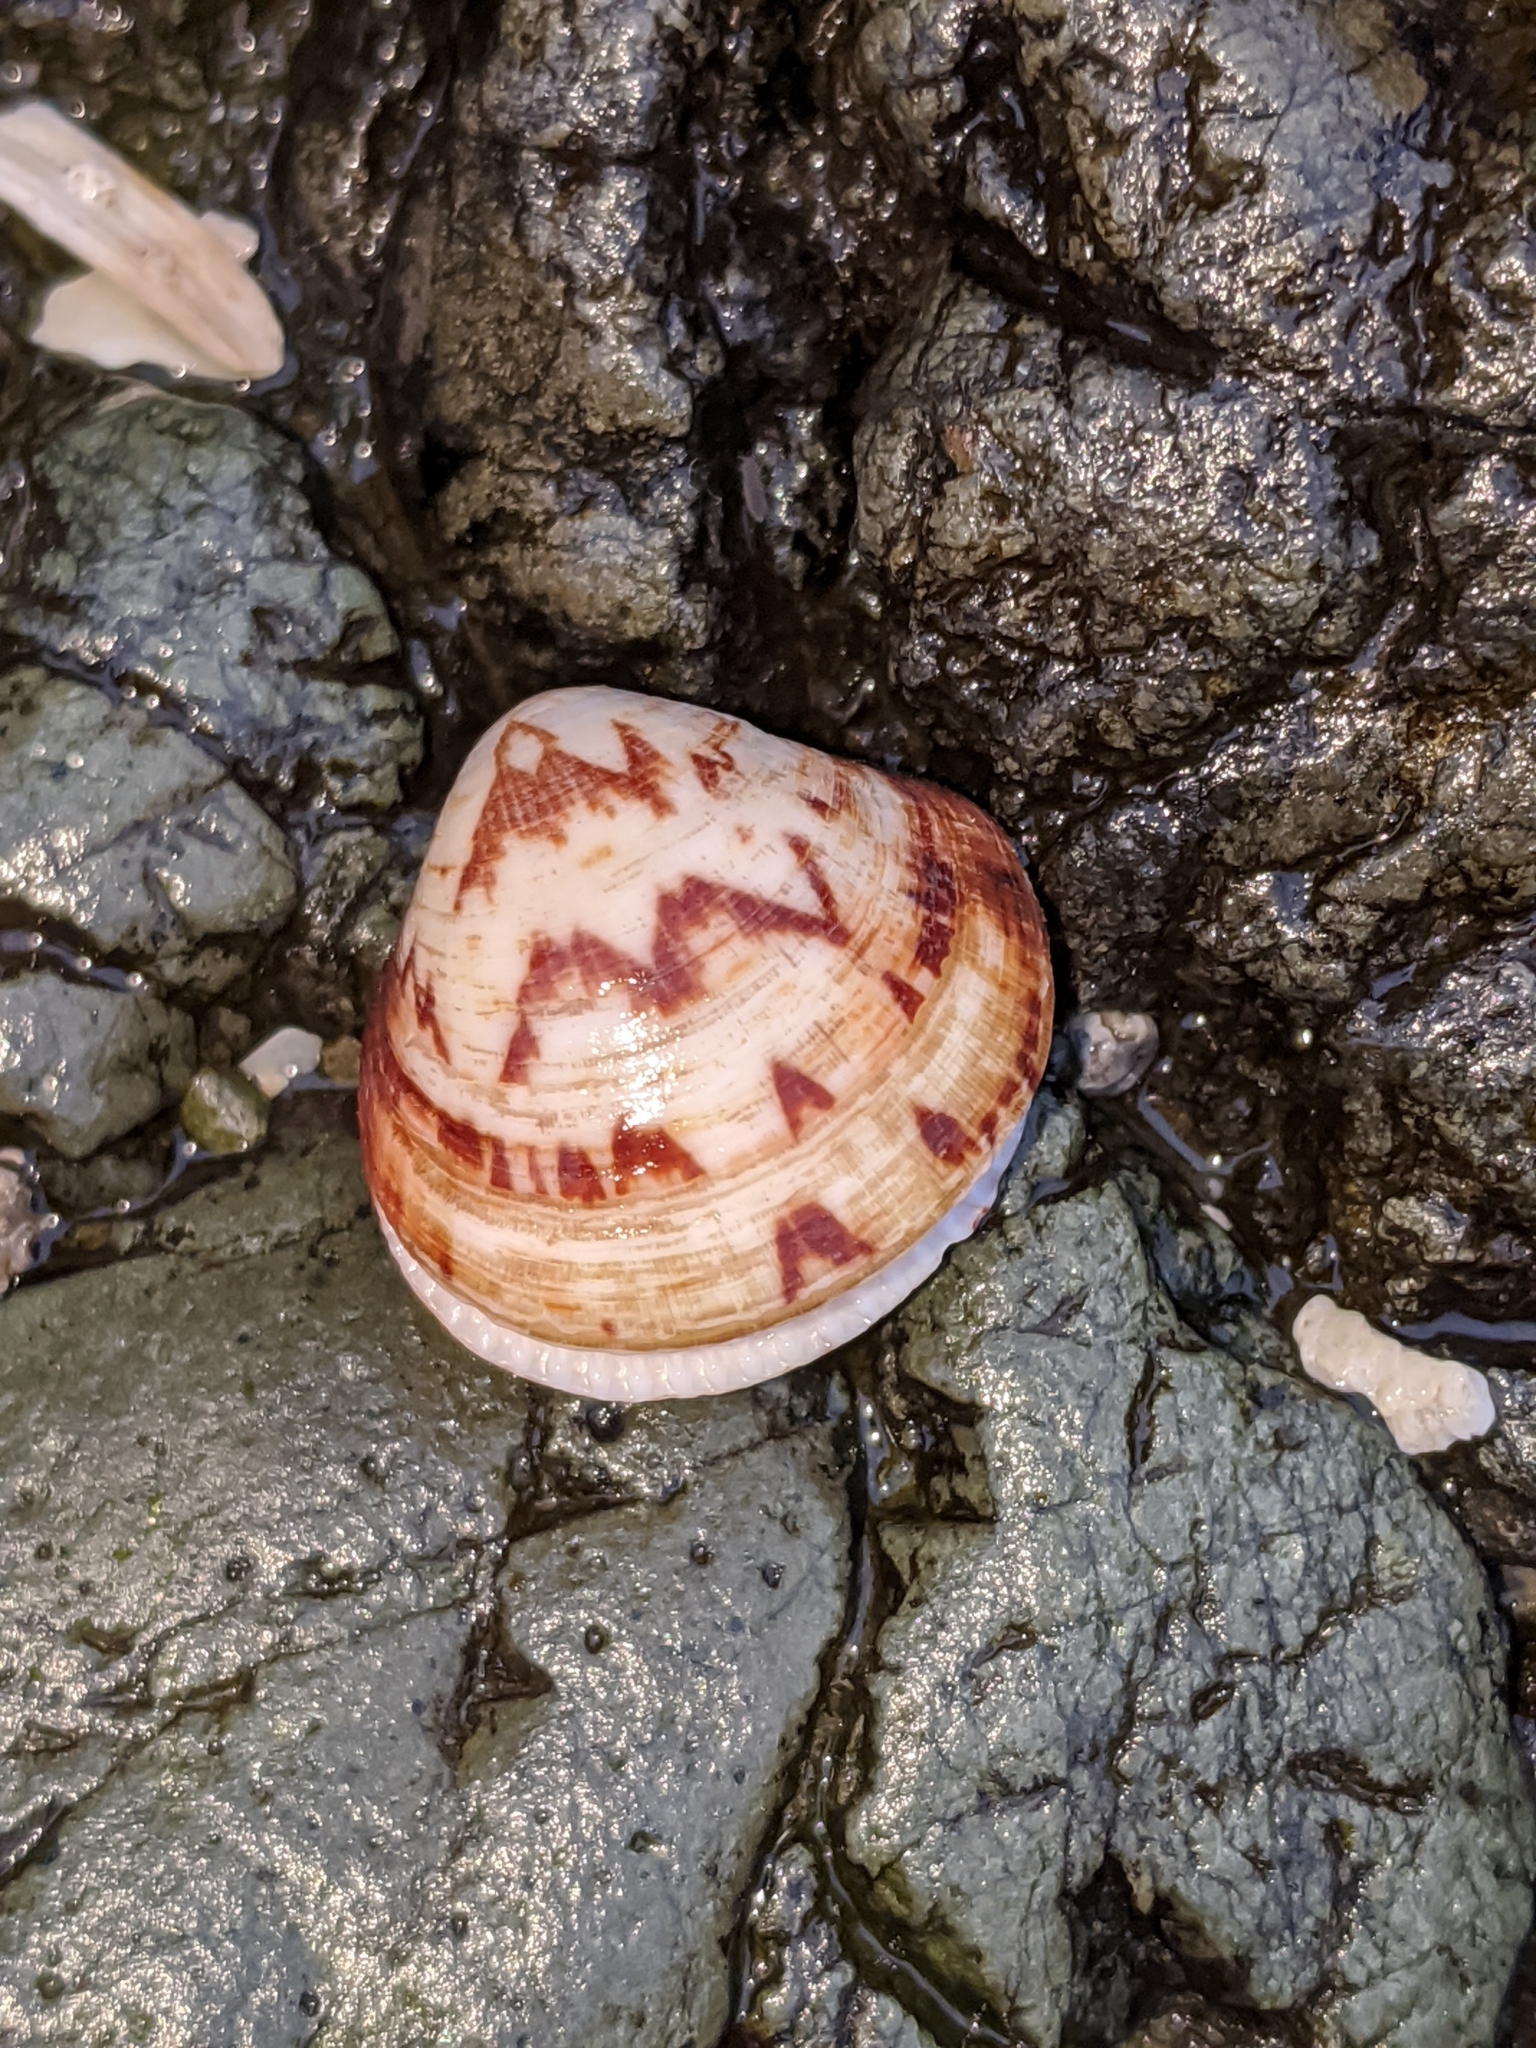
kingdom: Animalia
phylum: Mollusca
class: Bivalvia
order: Arcida
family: Glycymerididae
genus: Glycymeris
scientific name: Glycymeris septentrionalis
